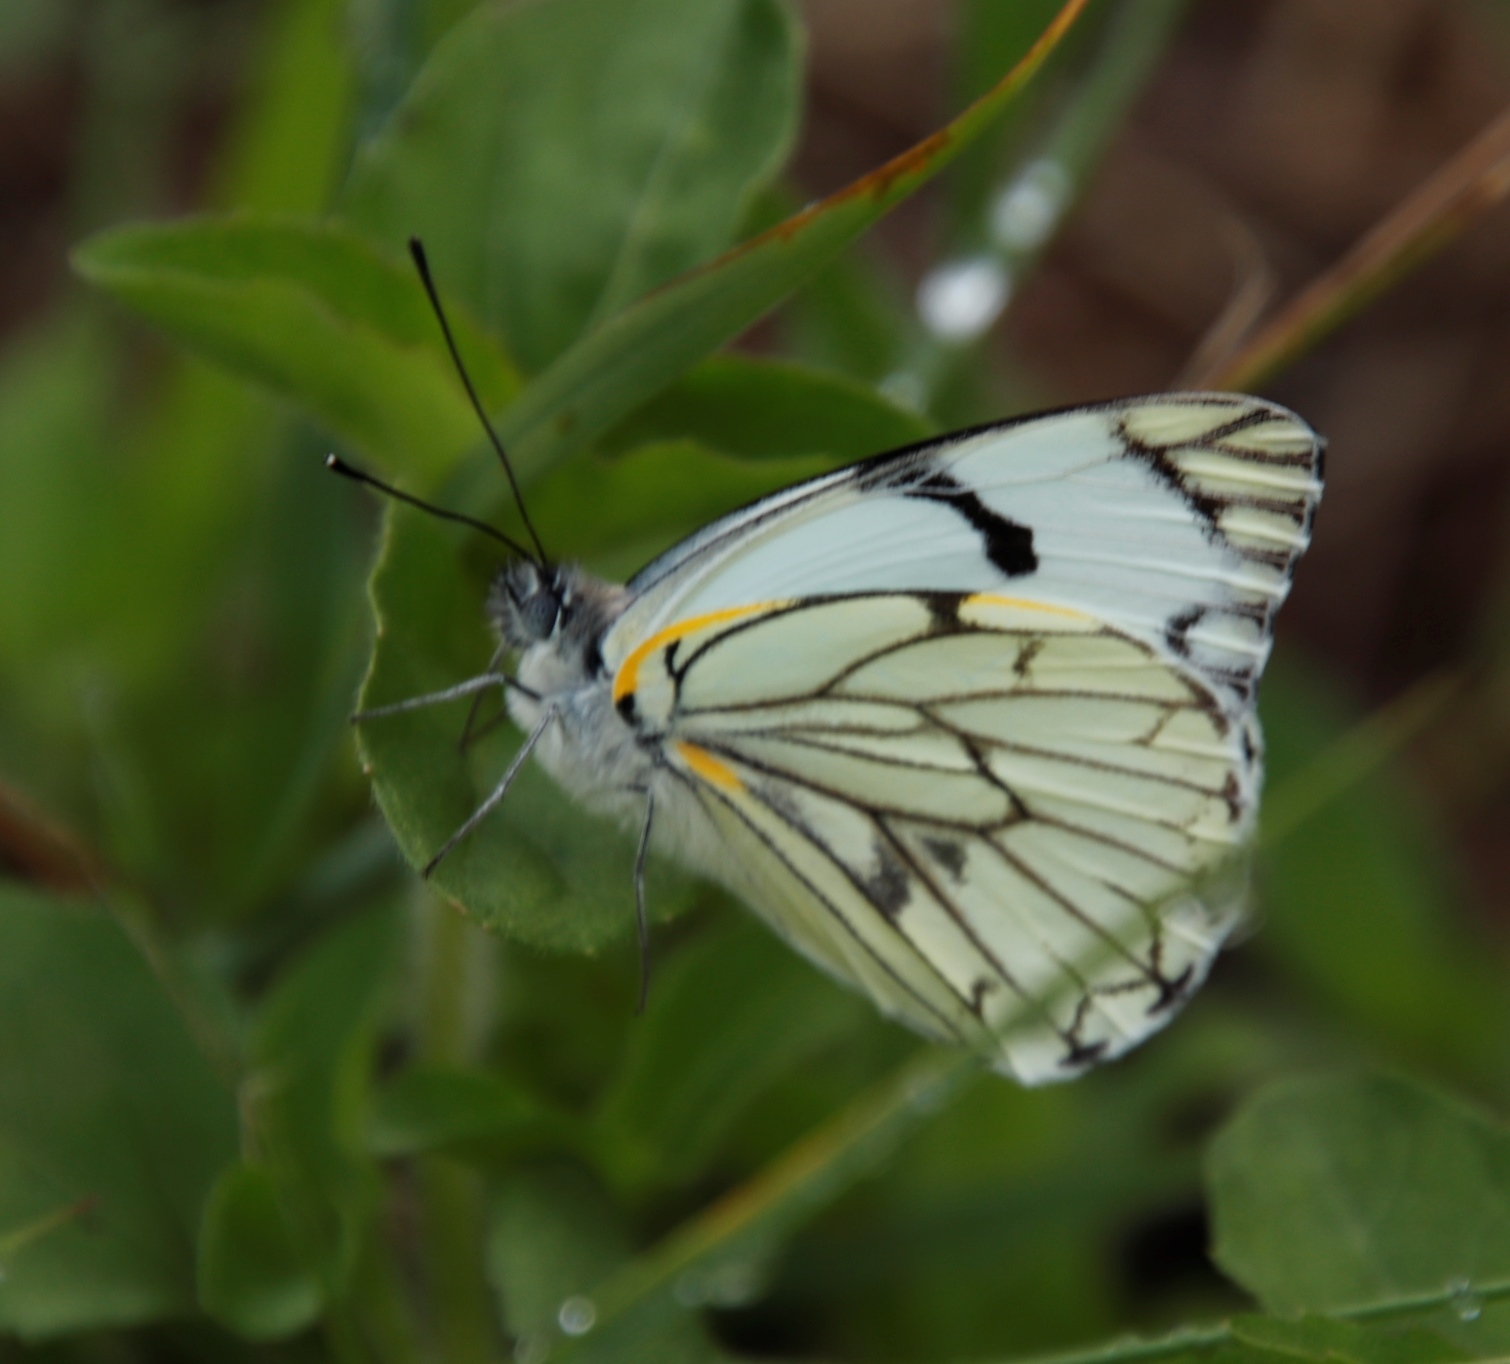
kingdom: Animalia
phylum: Arthropoda
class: Insecta
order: Lepidoptera
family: Pieridae
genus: Belenois
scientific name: Belenois zochalia
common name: Forest caper white
